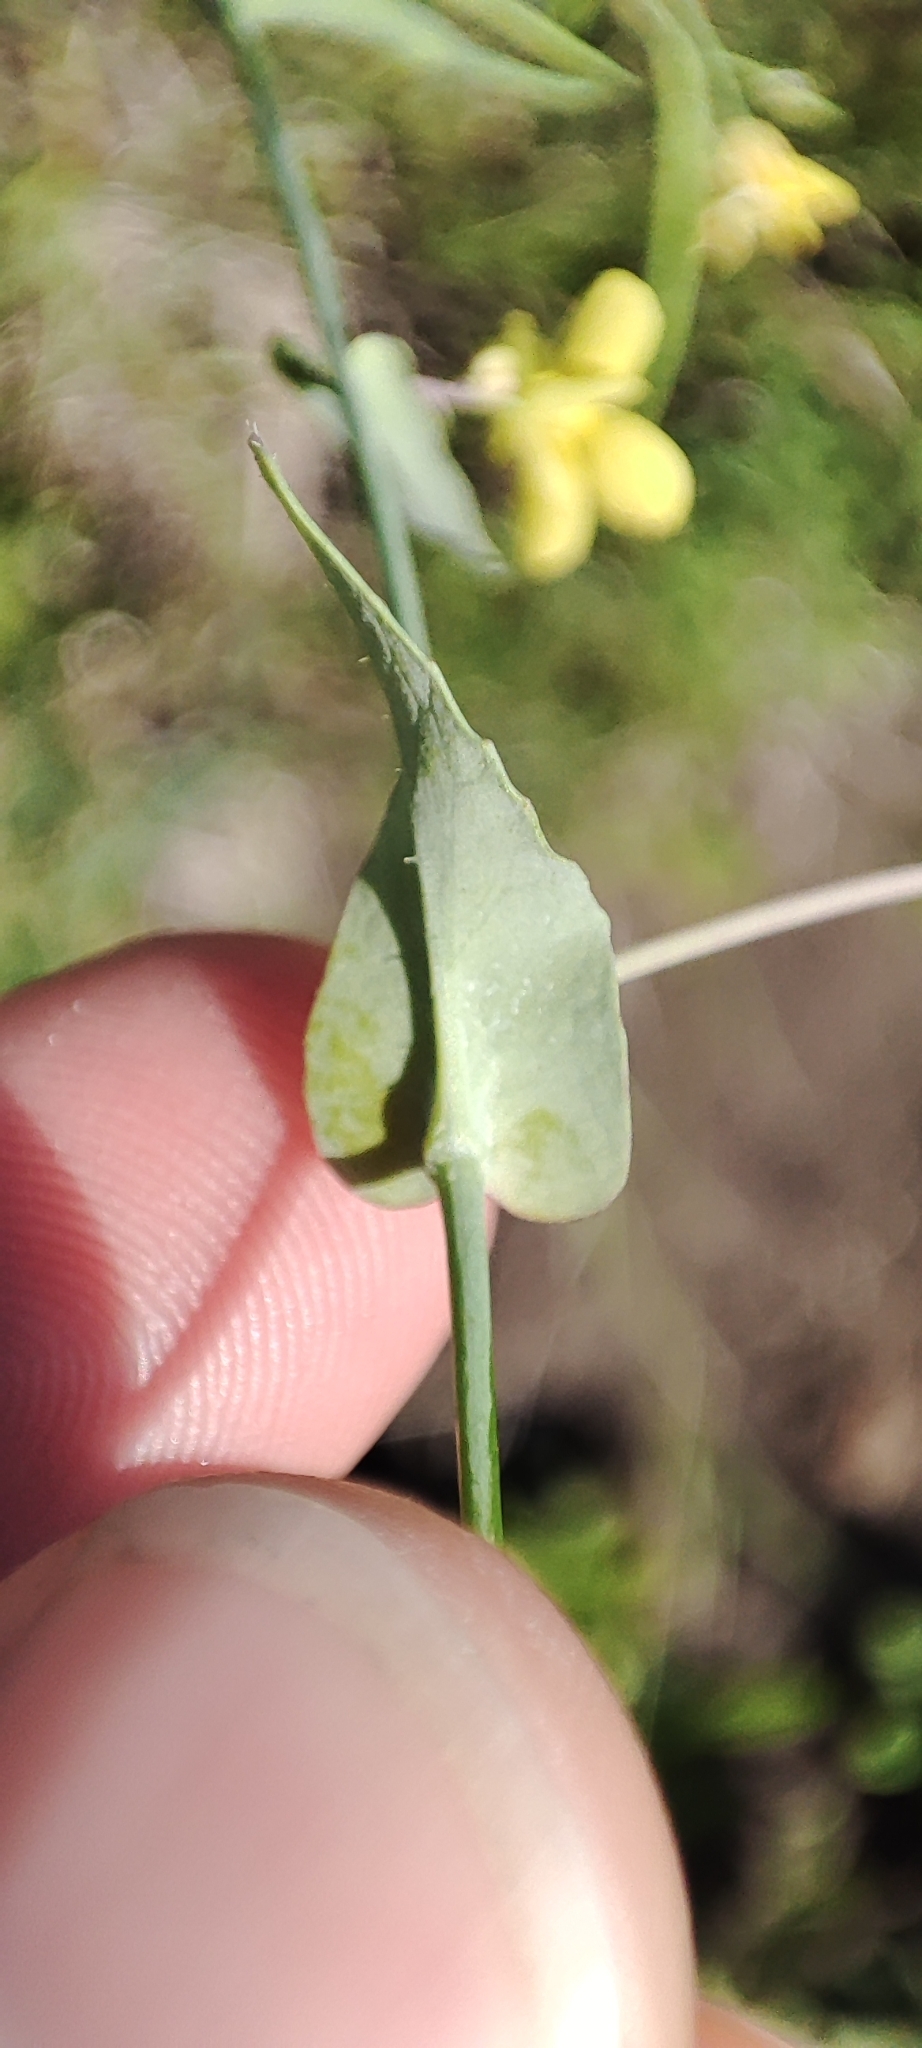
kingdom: Plantae
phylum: Tracheophyta
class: Magnoliopsida
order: Brassicales
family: Brassicaceae
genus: Brassica
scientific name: Brassica rapa
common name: Field mustard
